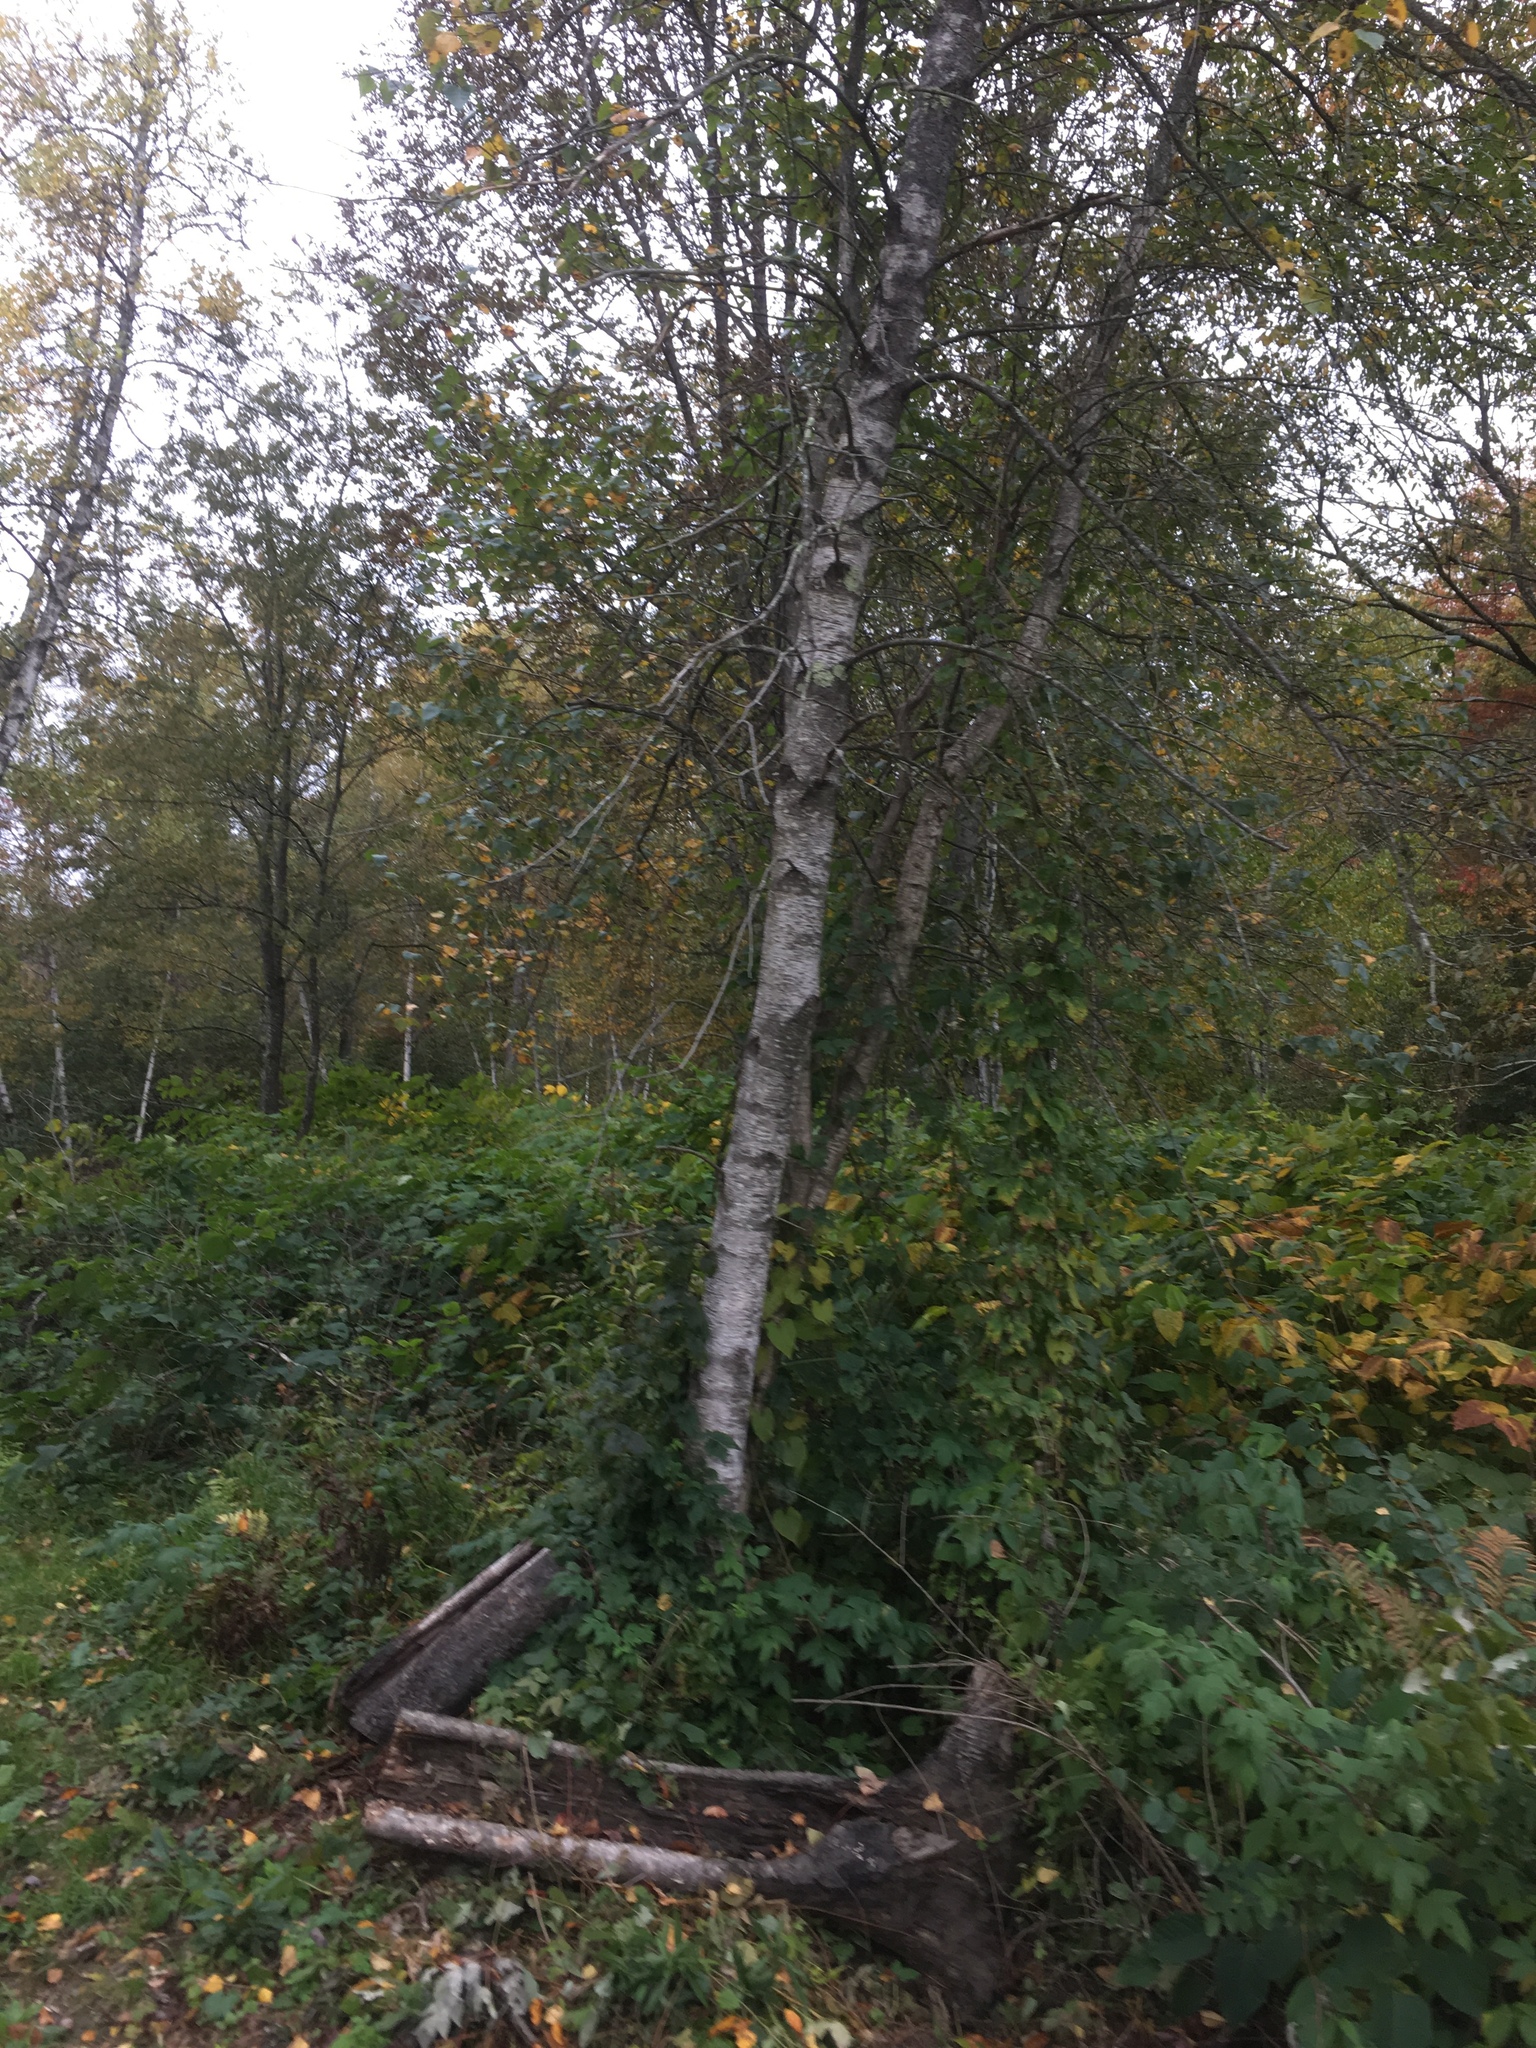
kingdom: Plantae
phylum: Tracheophyta
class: Magnoliopsida
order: Fagales
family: Betulaceae
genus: Betula
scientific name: Betula populifolia
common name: Fire birch
